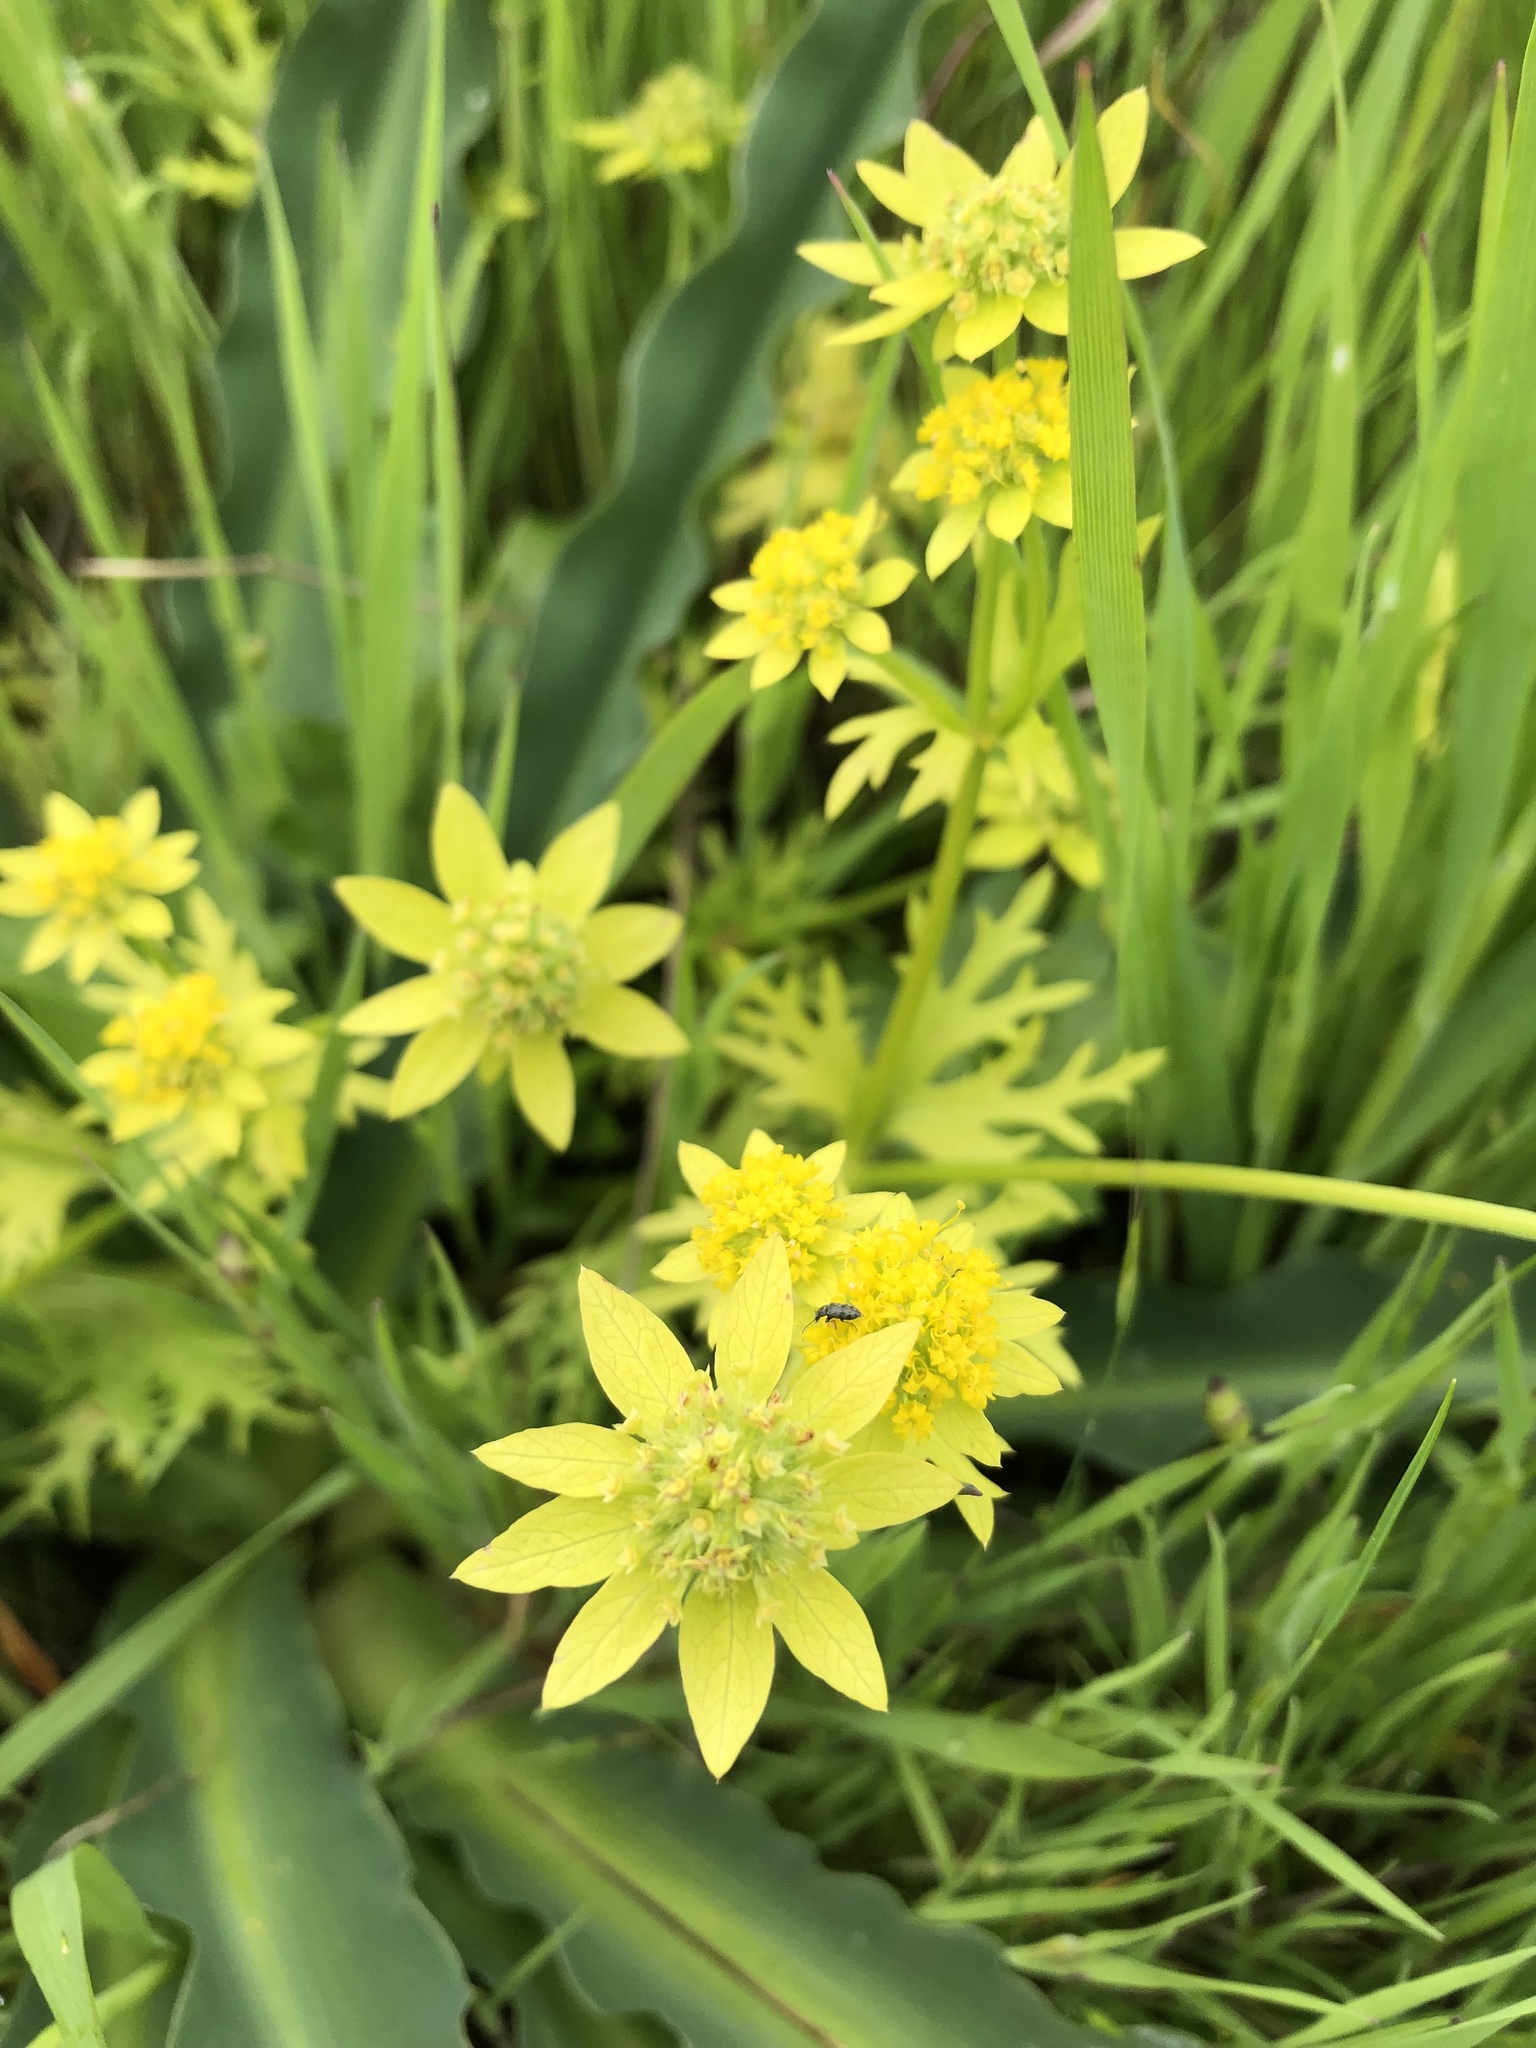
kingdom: Plantae
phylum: Tracheophyta
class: Magnoliopsida
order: Apiales
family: Apiaceae
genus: Sanicula
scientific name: Sanicula arctopoides
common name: Footsteps-of-spring
